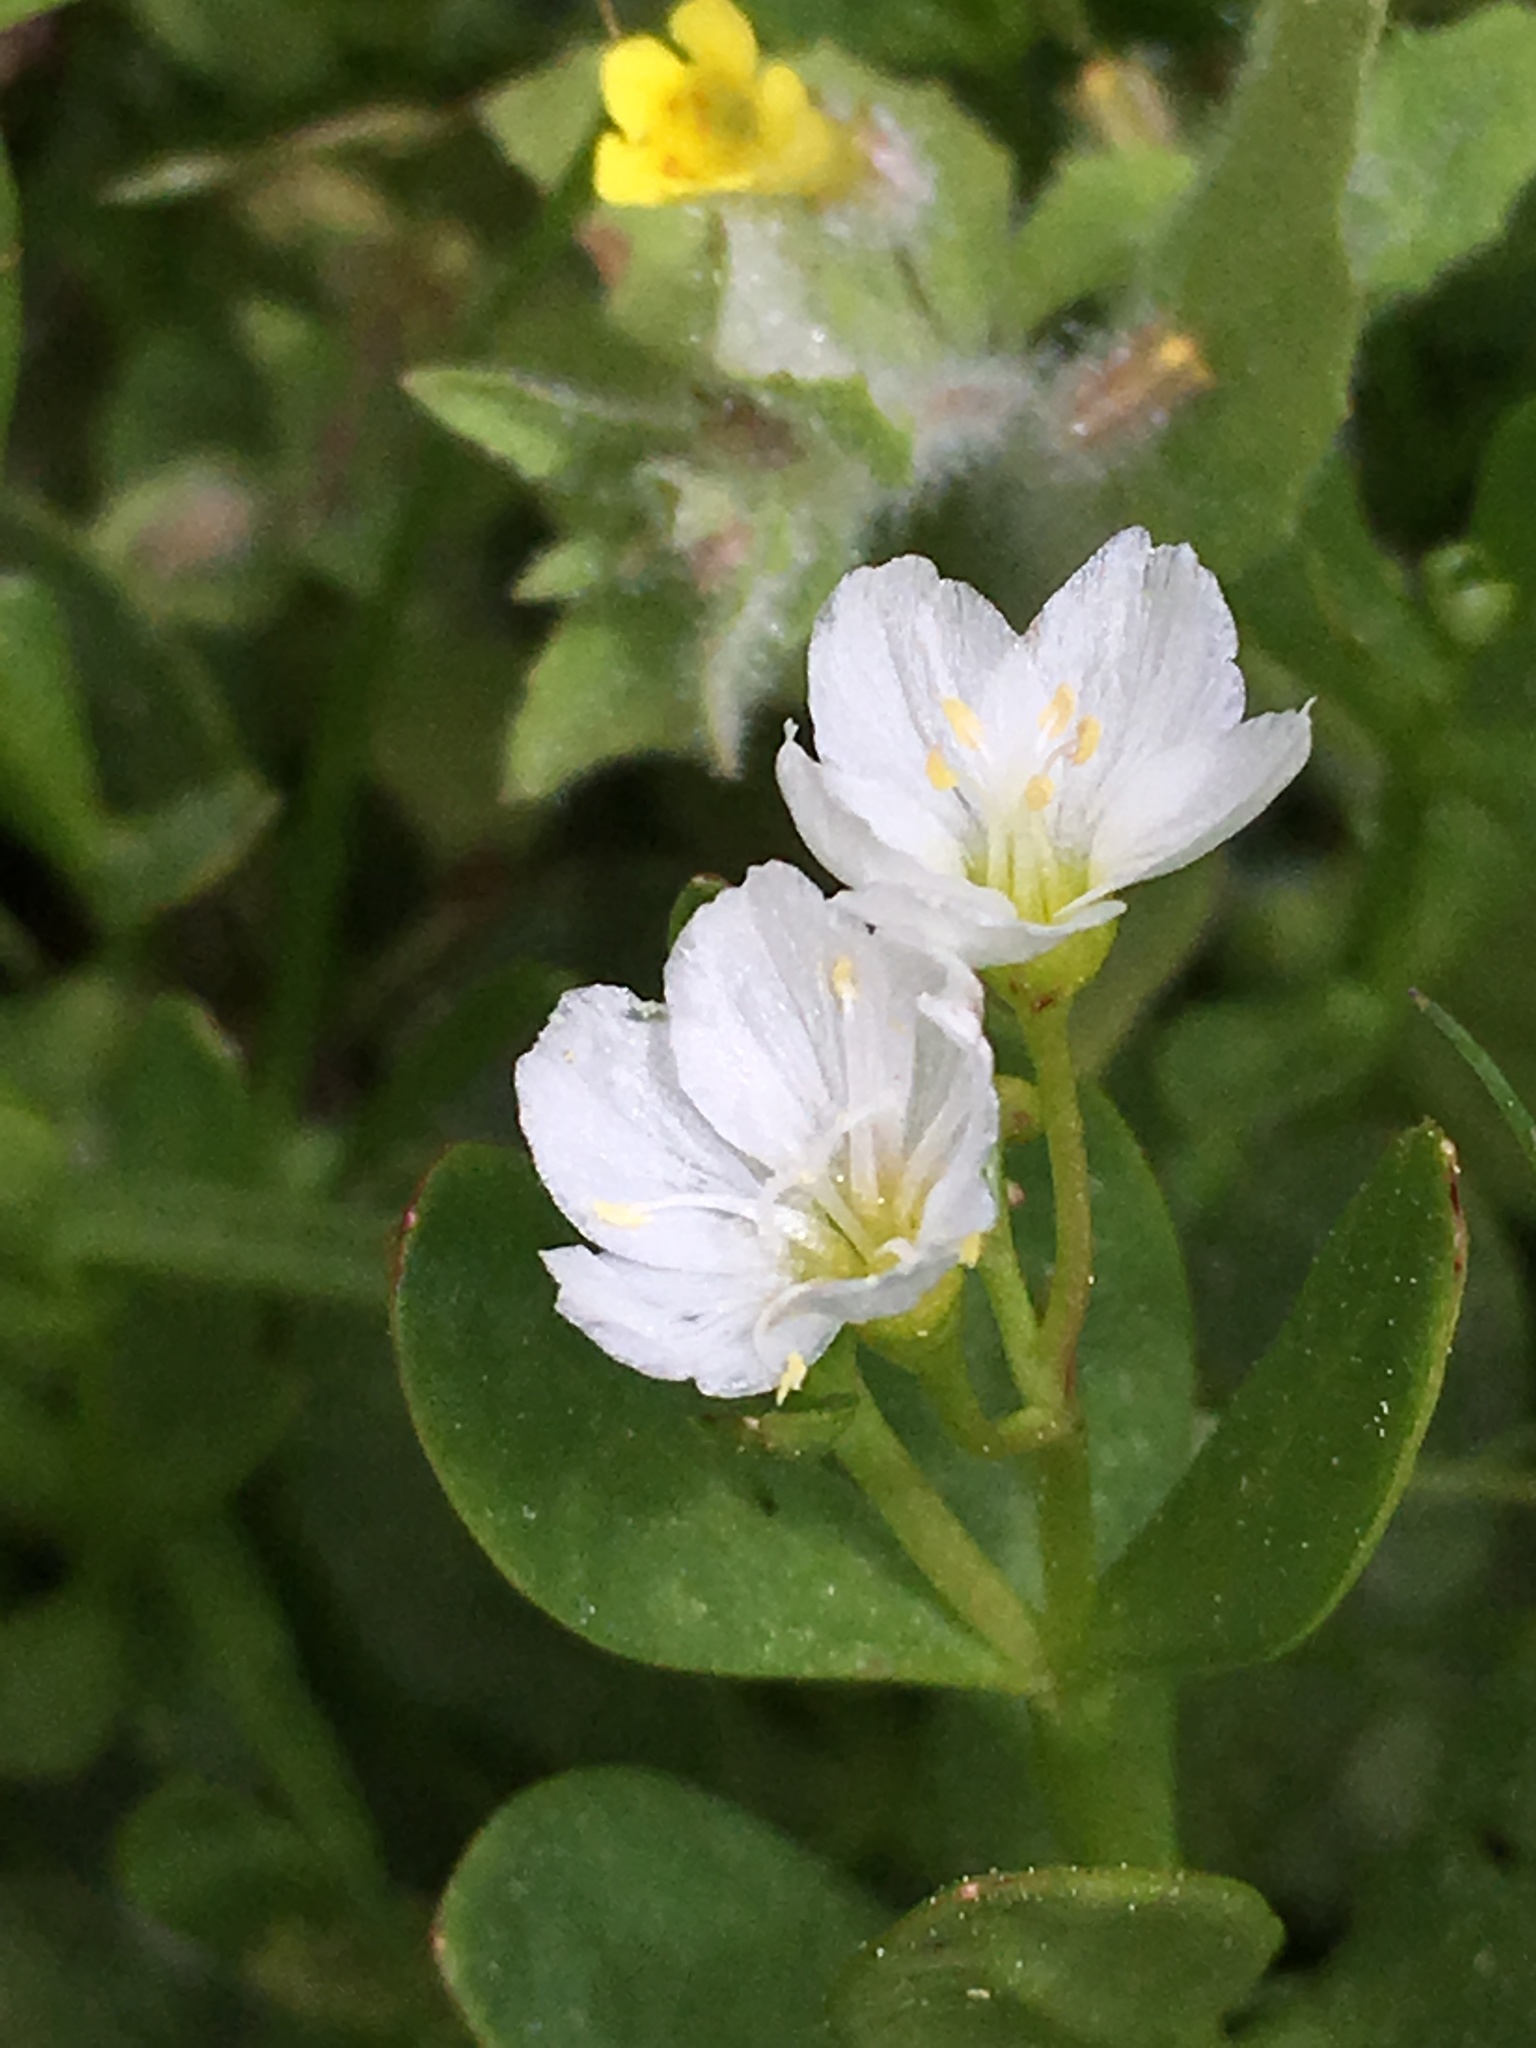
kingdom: Plantae
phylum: Tracheophyta
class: Magnoliopsida
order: Caryophyllales
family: Montiaceae
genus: Montia
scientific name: Montia chamissoi
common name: Chamisso's candyflower
